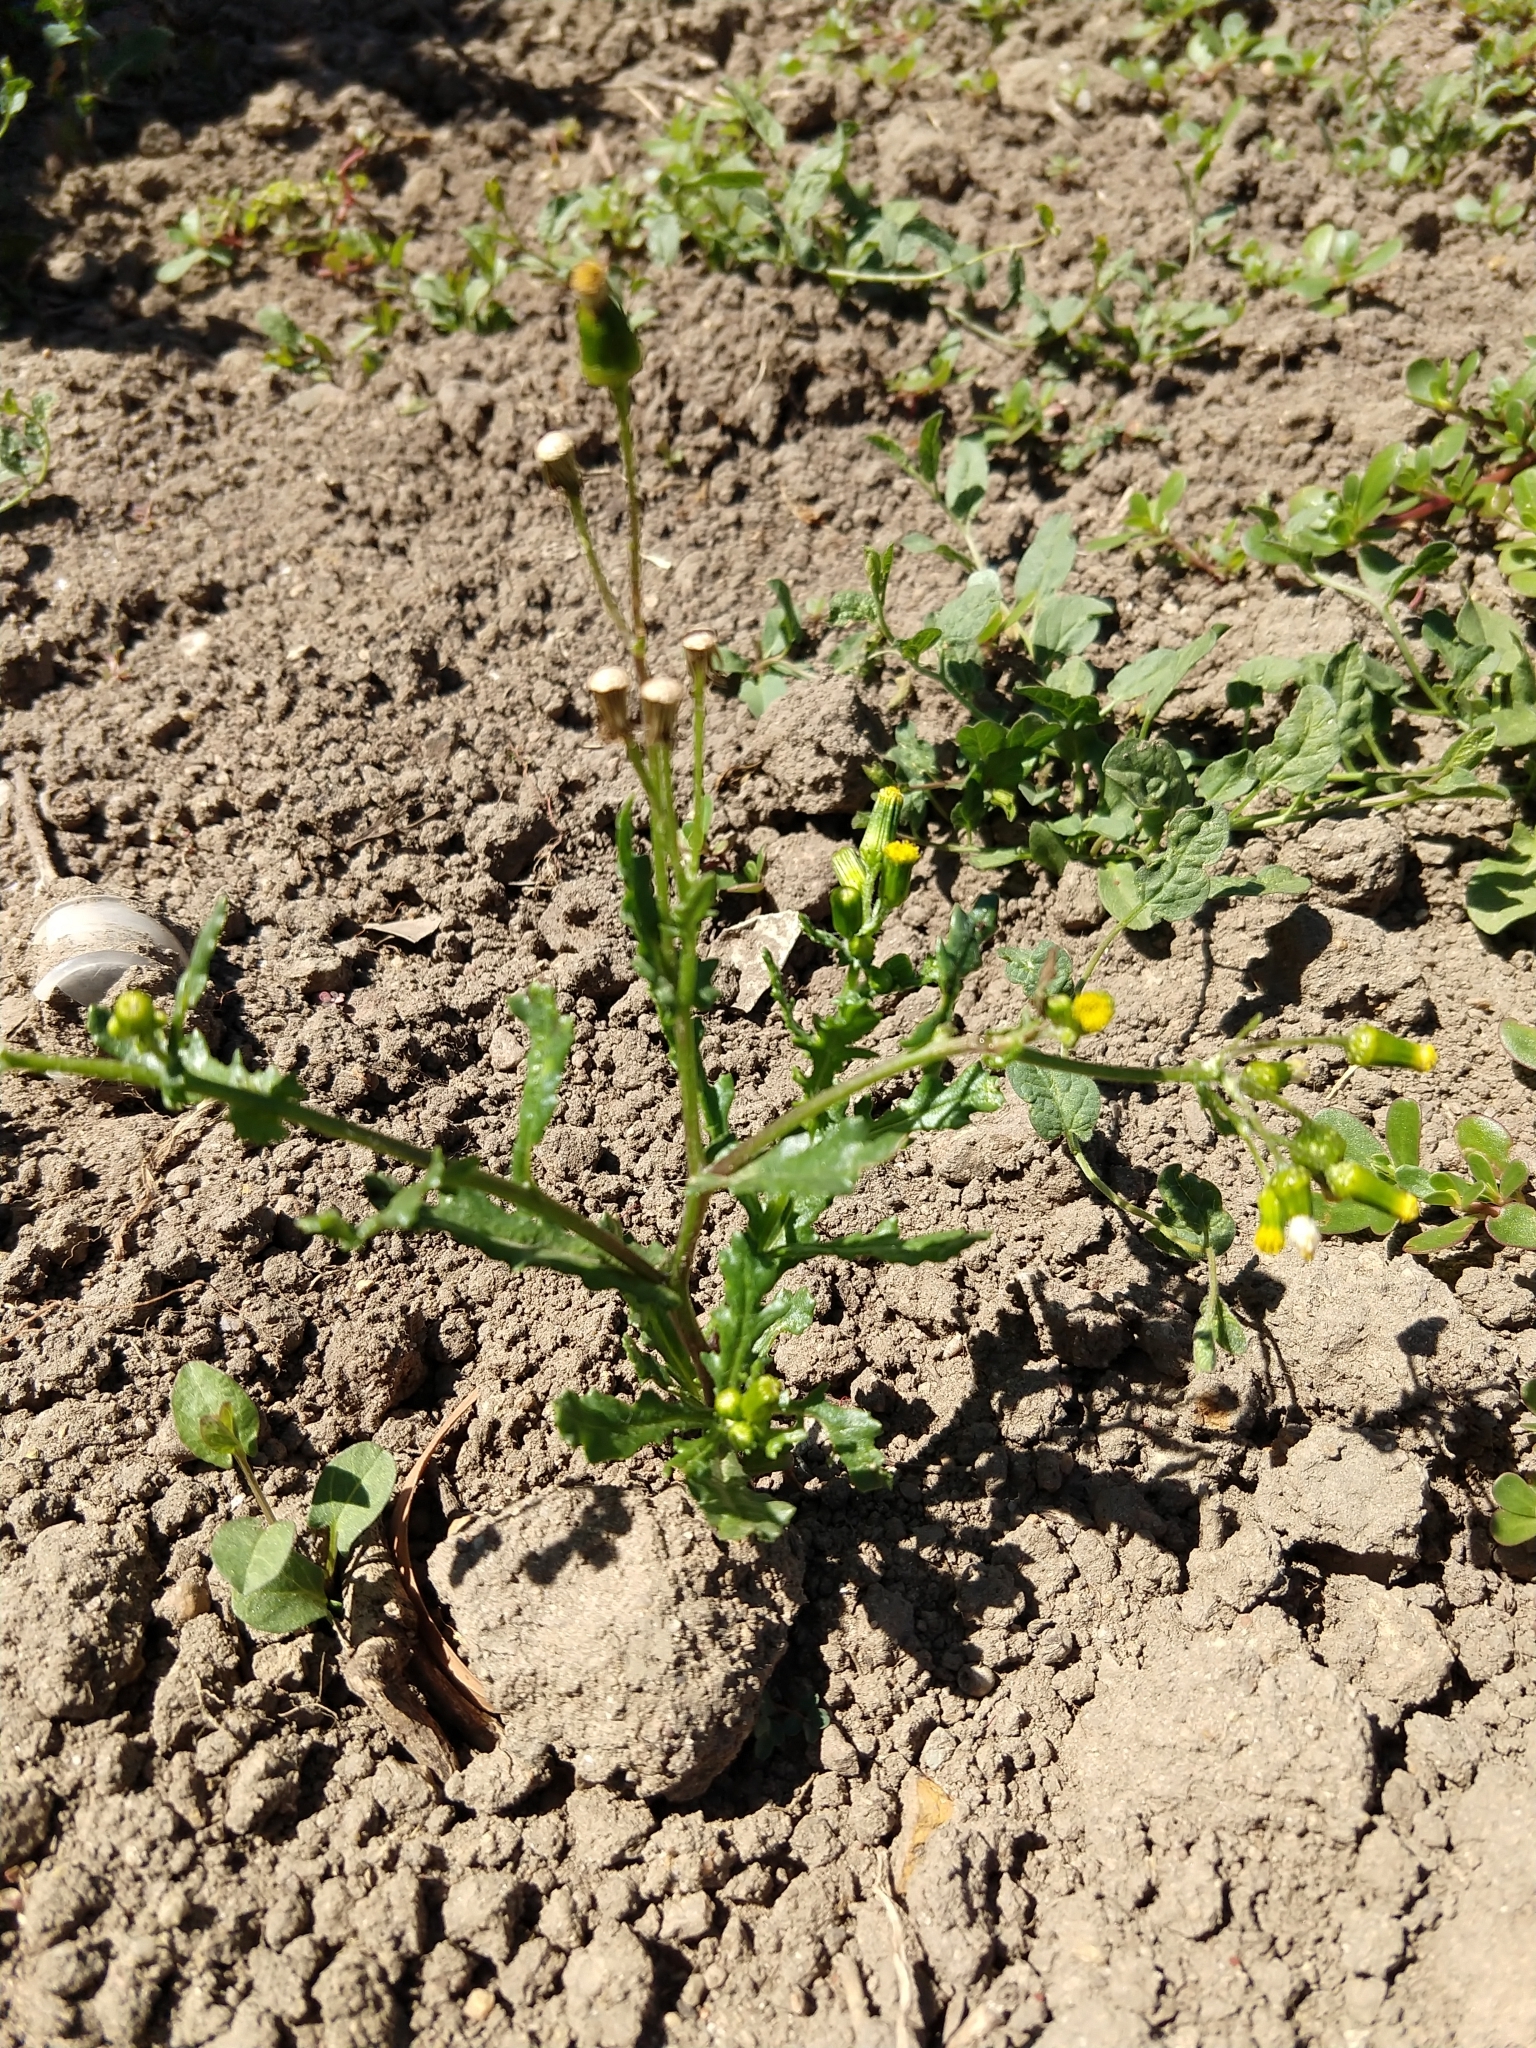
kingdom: Plantae
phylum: Tracheophyta
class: Magnoliopsida
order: Asterales
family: Asteraceae
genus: Senecio
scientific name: Senecio vulgaris
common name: Old-man-in-the-spring
